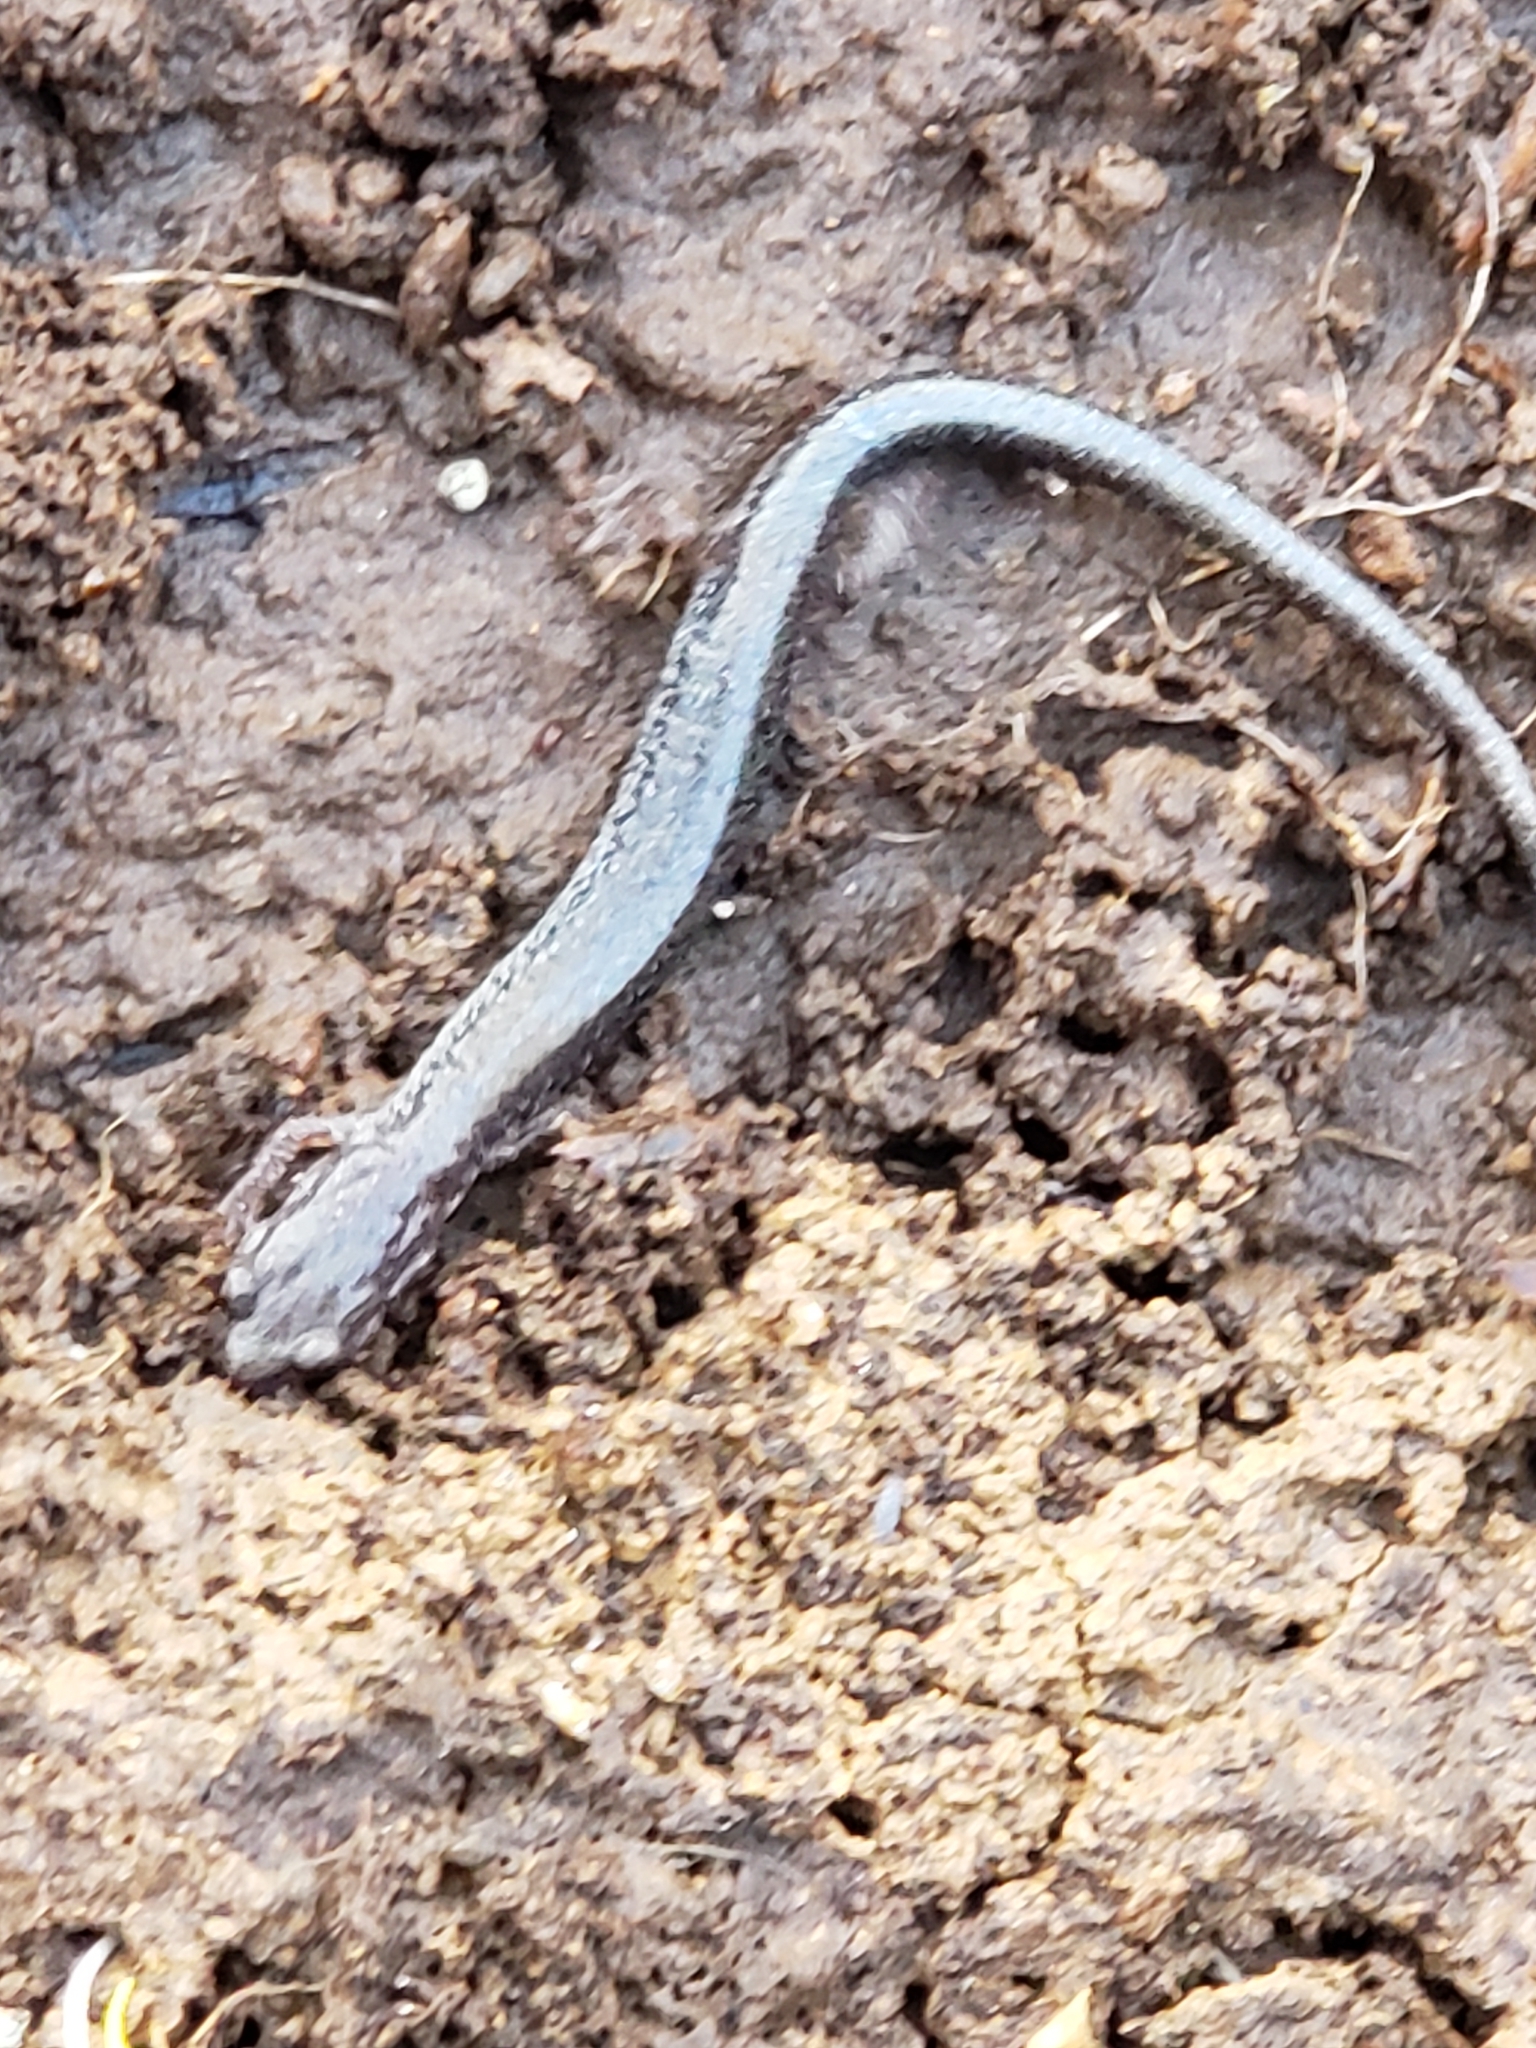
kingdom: Animalia
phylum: Chordata
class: Amphibia
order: Caudata
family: Plethodontidae
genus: Plethodon
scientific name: Plethodon cinereus
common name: Redback salamander
